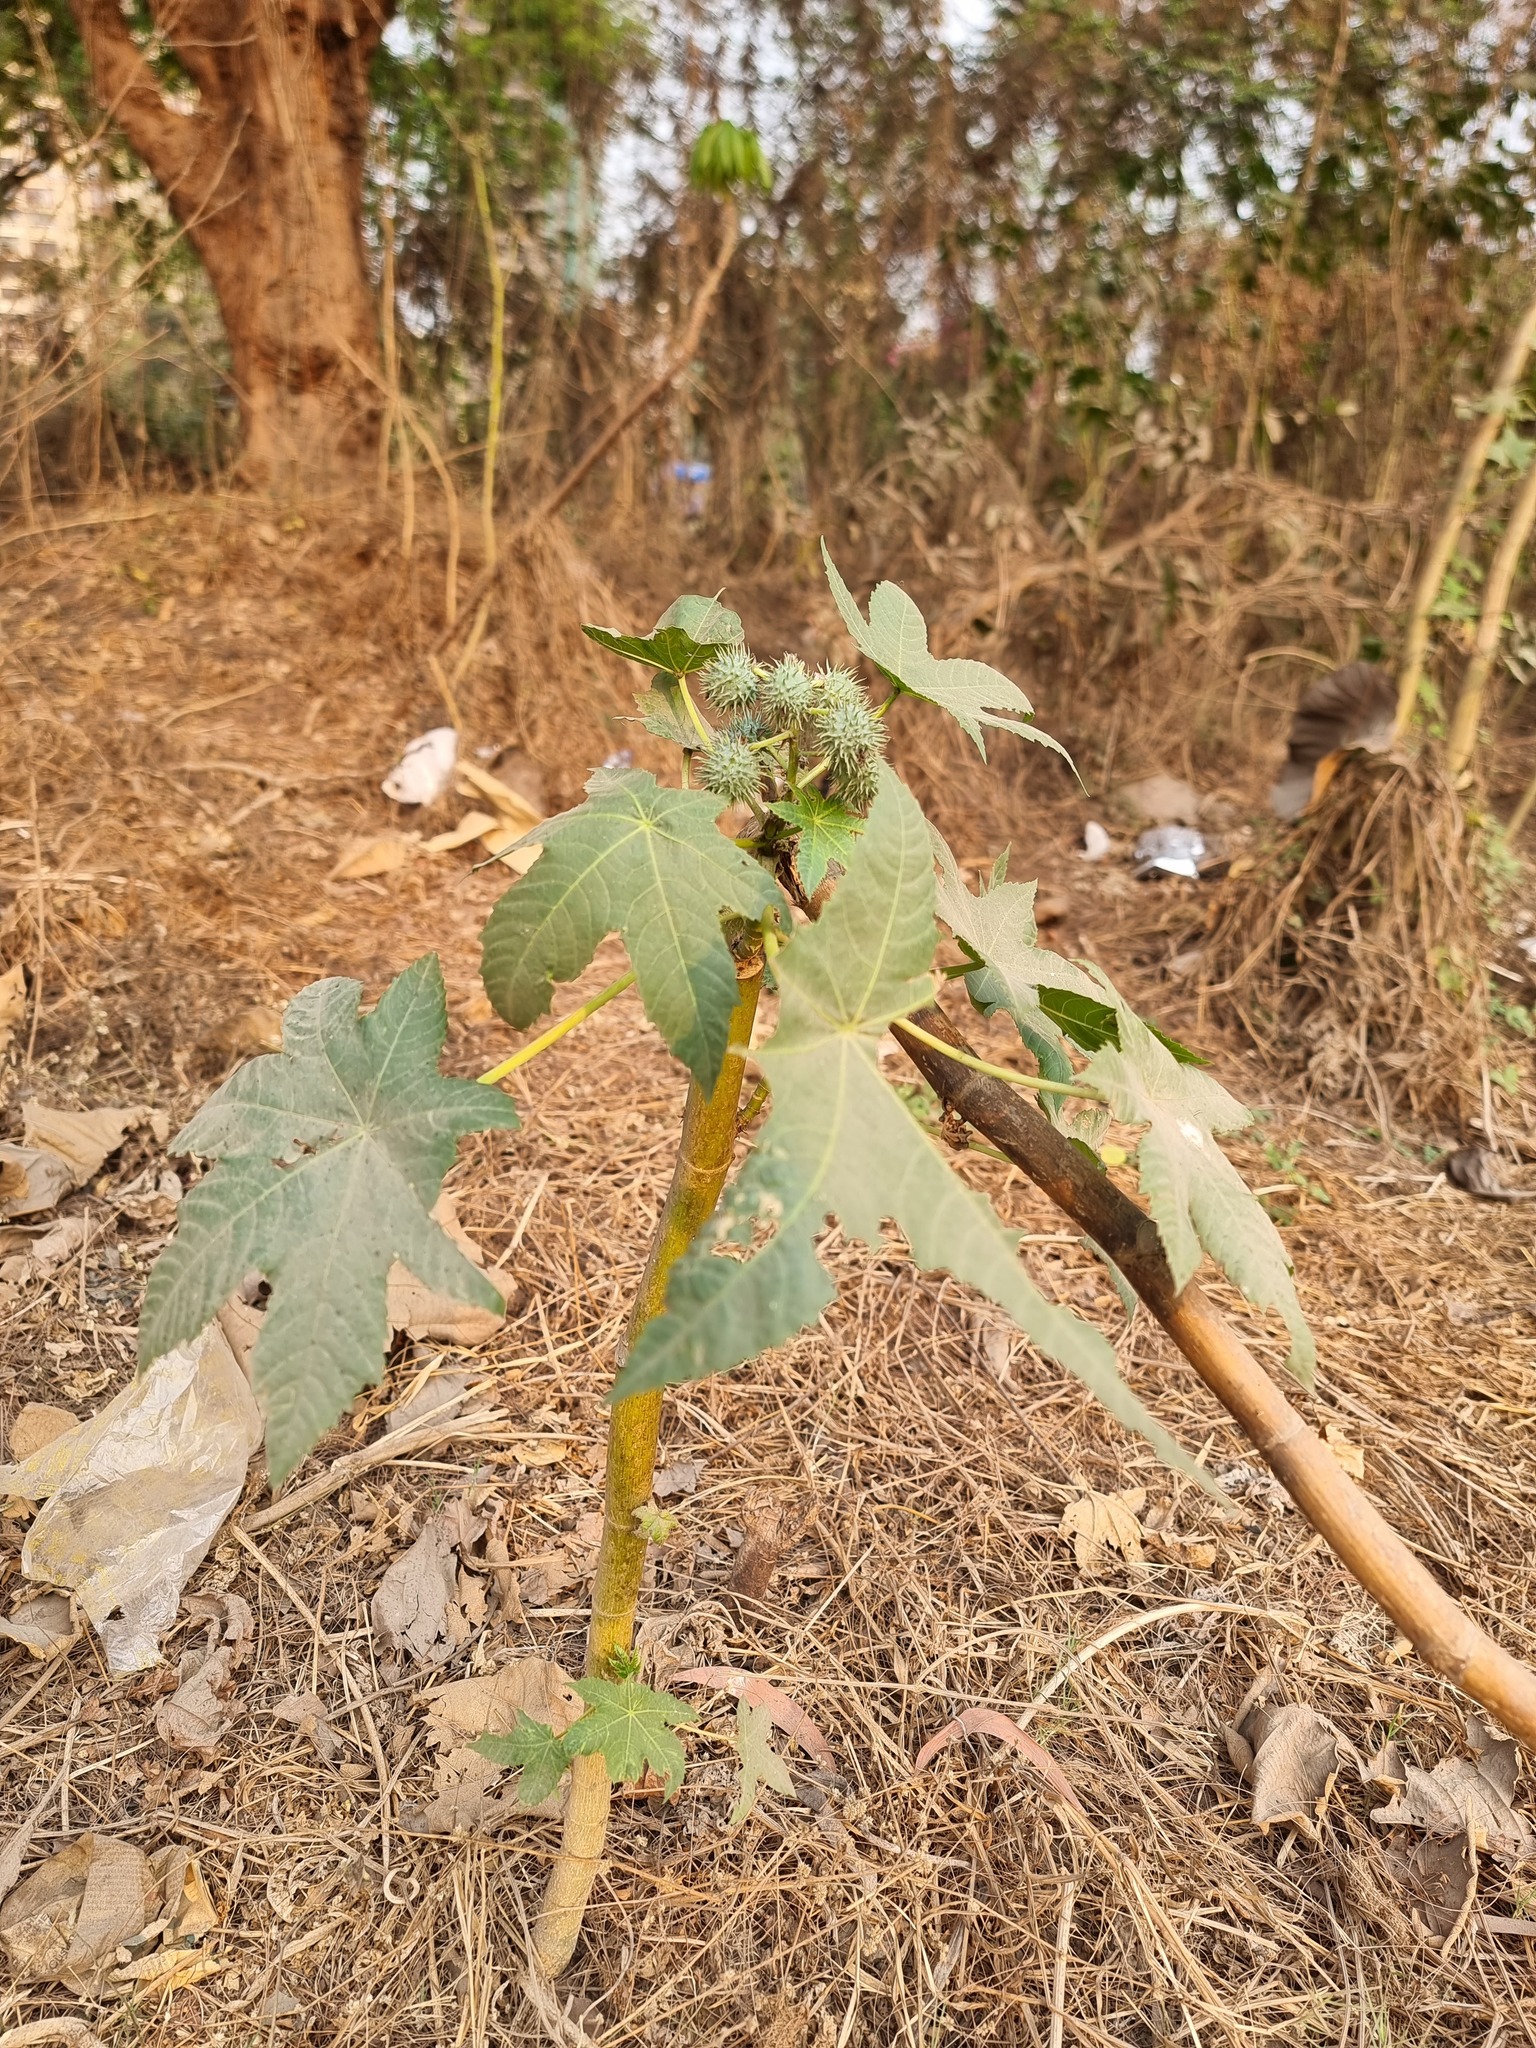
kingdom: Plantae
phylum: Tracheophyta
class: Magnoliopsida
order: Malpighiales
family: Euphorbiaceae
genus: Ricinus
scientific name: Ricinus communis
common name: Castor-oil-plant
